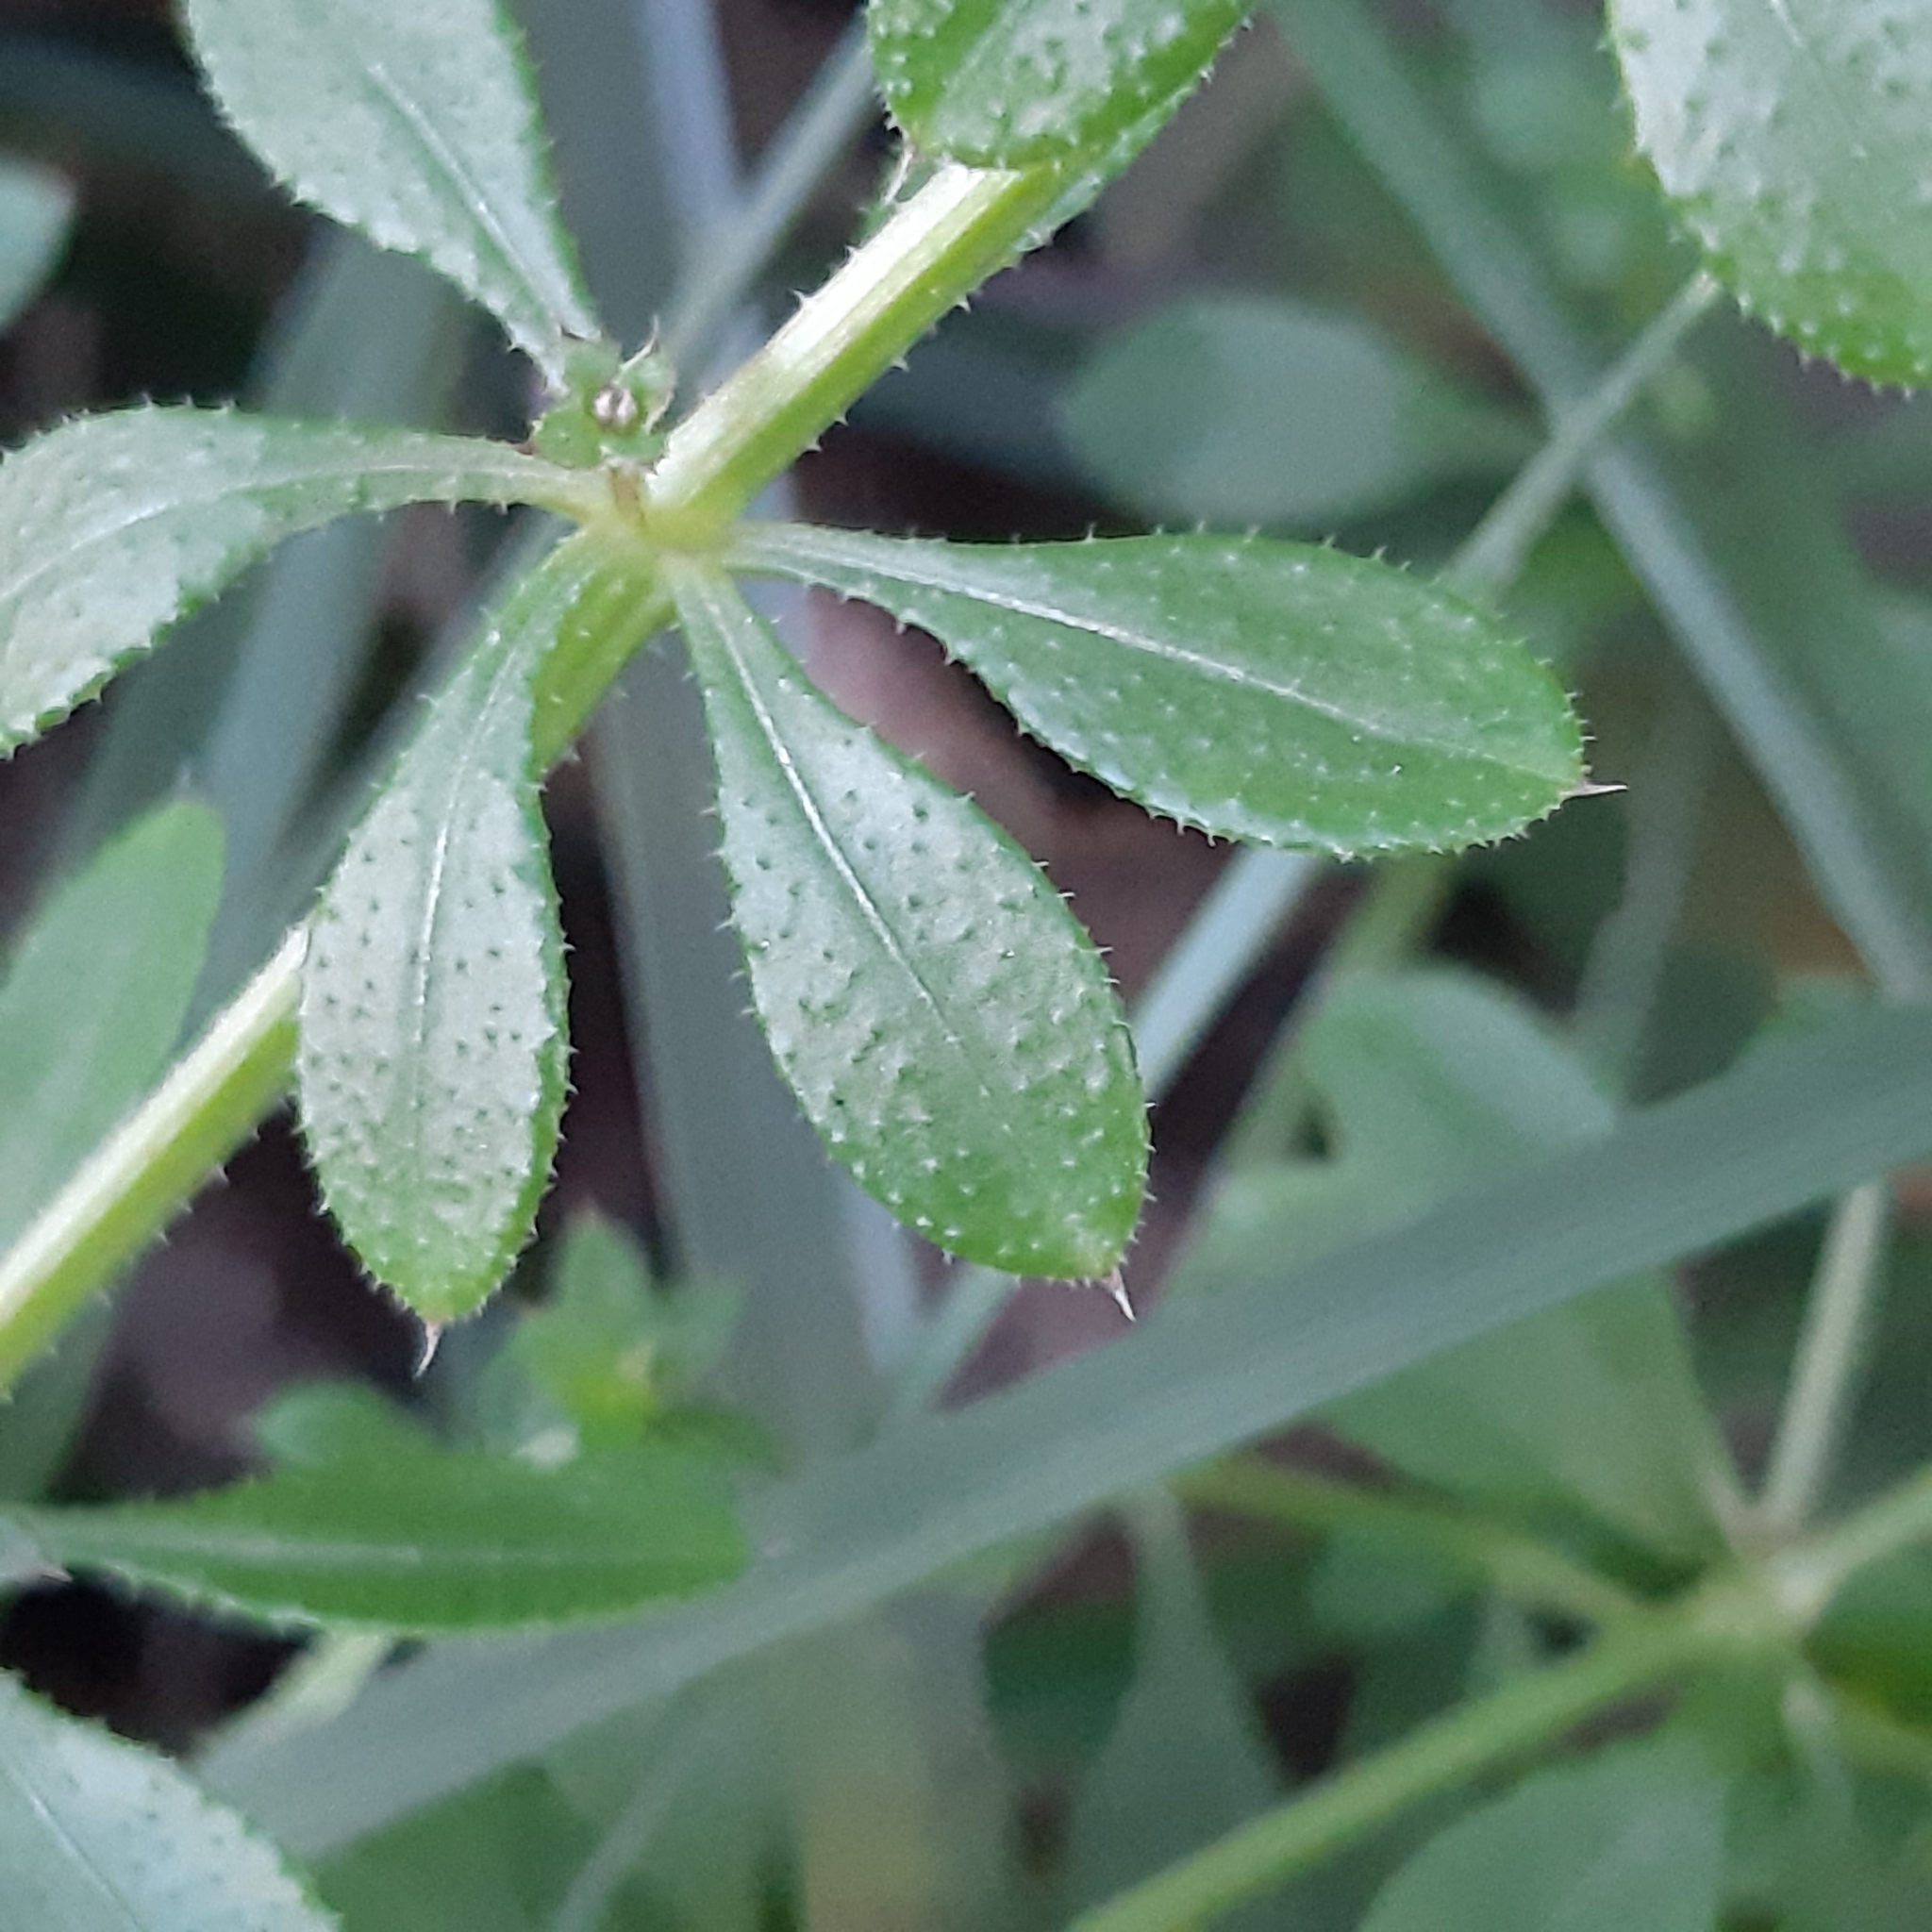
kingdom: Plantae
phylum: Tracheophyta
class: Magnoliopsida
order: Gentianales
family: Rubiaceae
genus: Galium
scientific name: Galium aparine
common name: Cleavers
